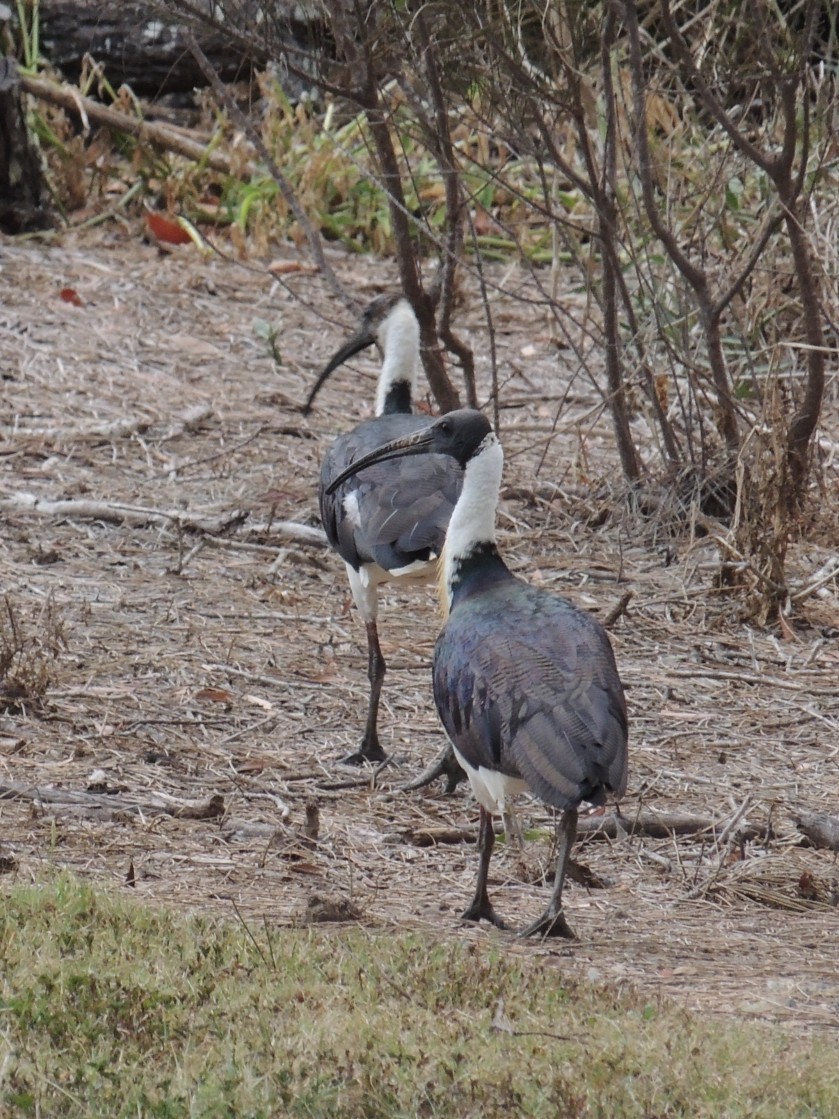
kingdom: Animalia
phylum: Chordata
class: Aves
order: Pelecaniformes
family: Threskiornithidae
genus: Threskiornis
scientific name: Threskiornis spinicollis
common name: Straw-necked ibis
